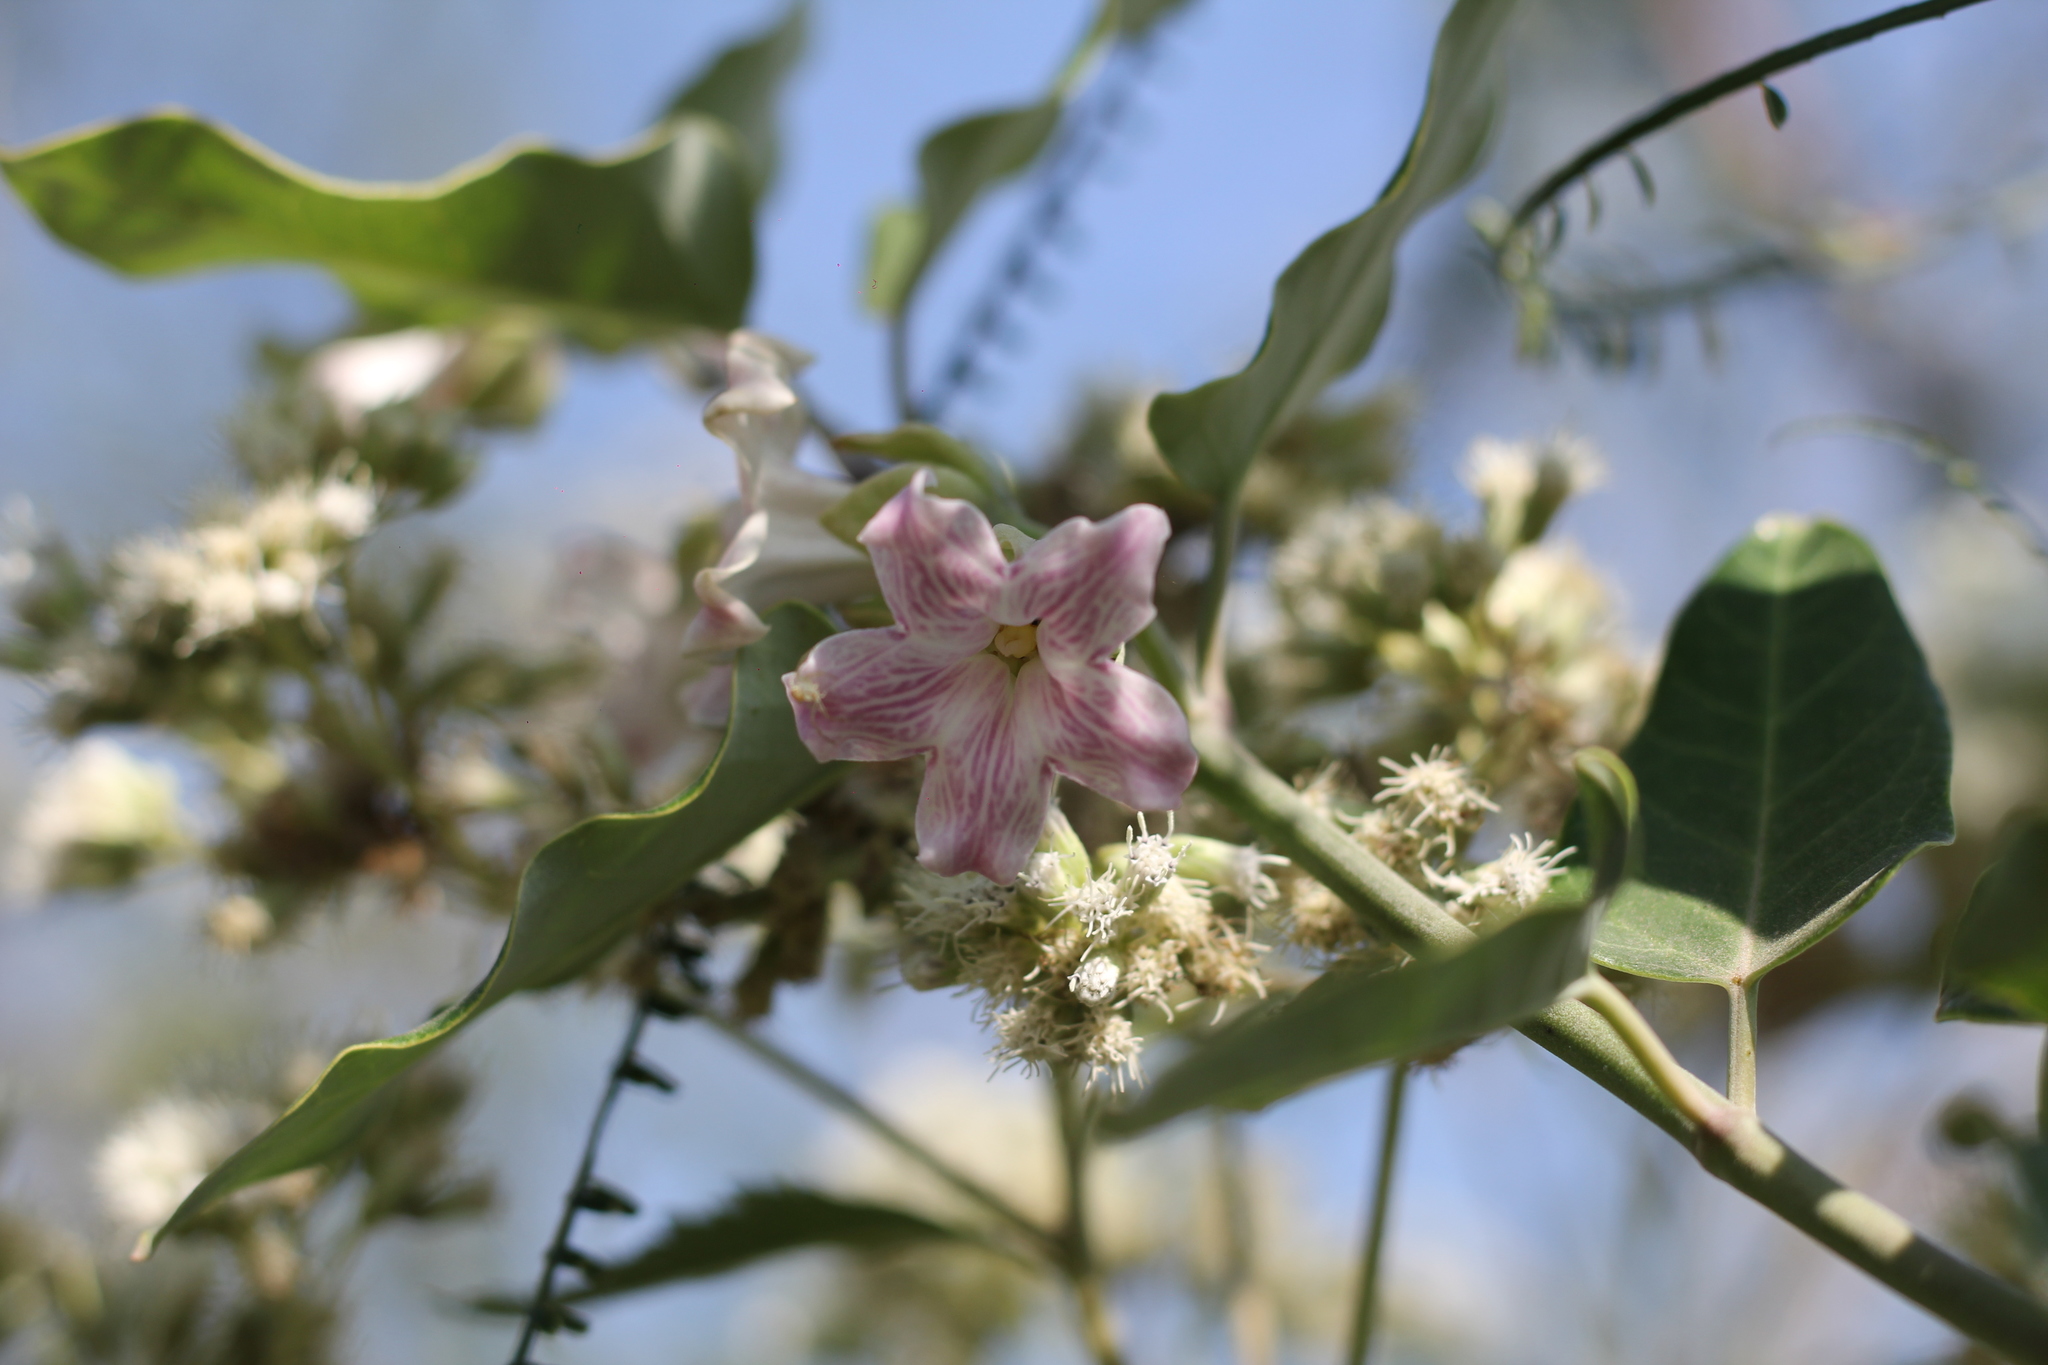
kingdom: Plantae
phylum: Tracheophyta
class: Magnoliopsida
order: Gentianales
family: Apocynaceae
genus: Araujia
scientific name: Araujia sericifera
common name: White bladderflower
